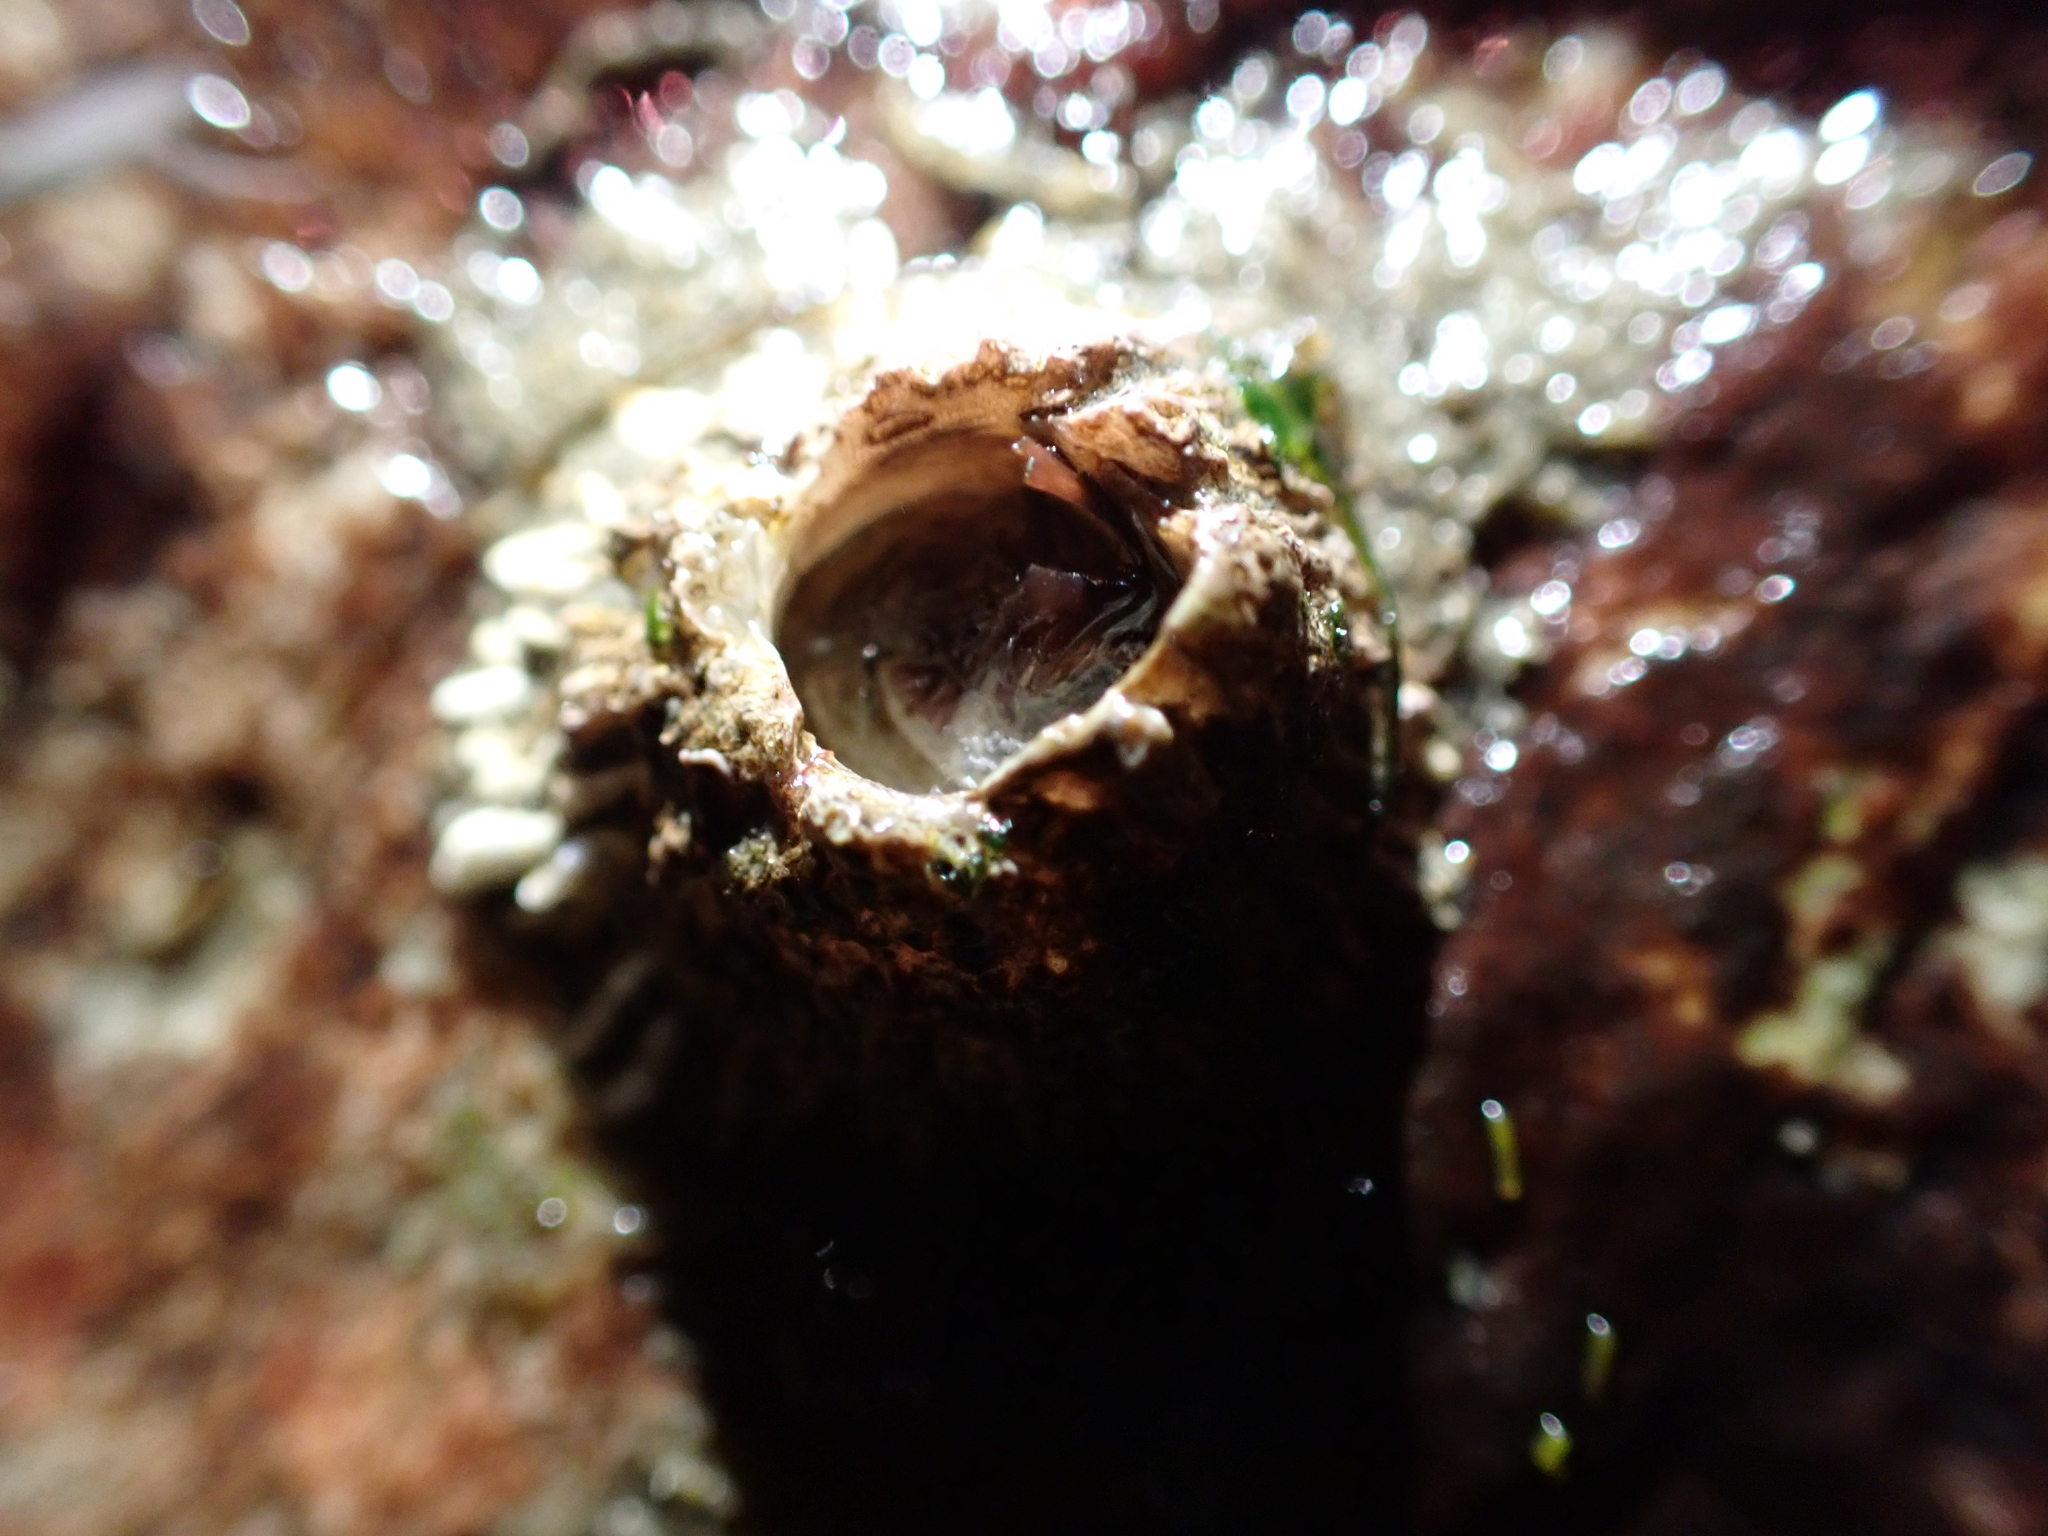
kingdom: Animalia
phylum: Arthropoda
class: Maxillopoda
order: Sessilia
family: Archaeobalanidae
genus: Semibalanus
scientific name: Semibalanus cariosus
